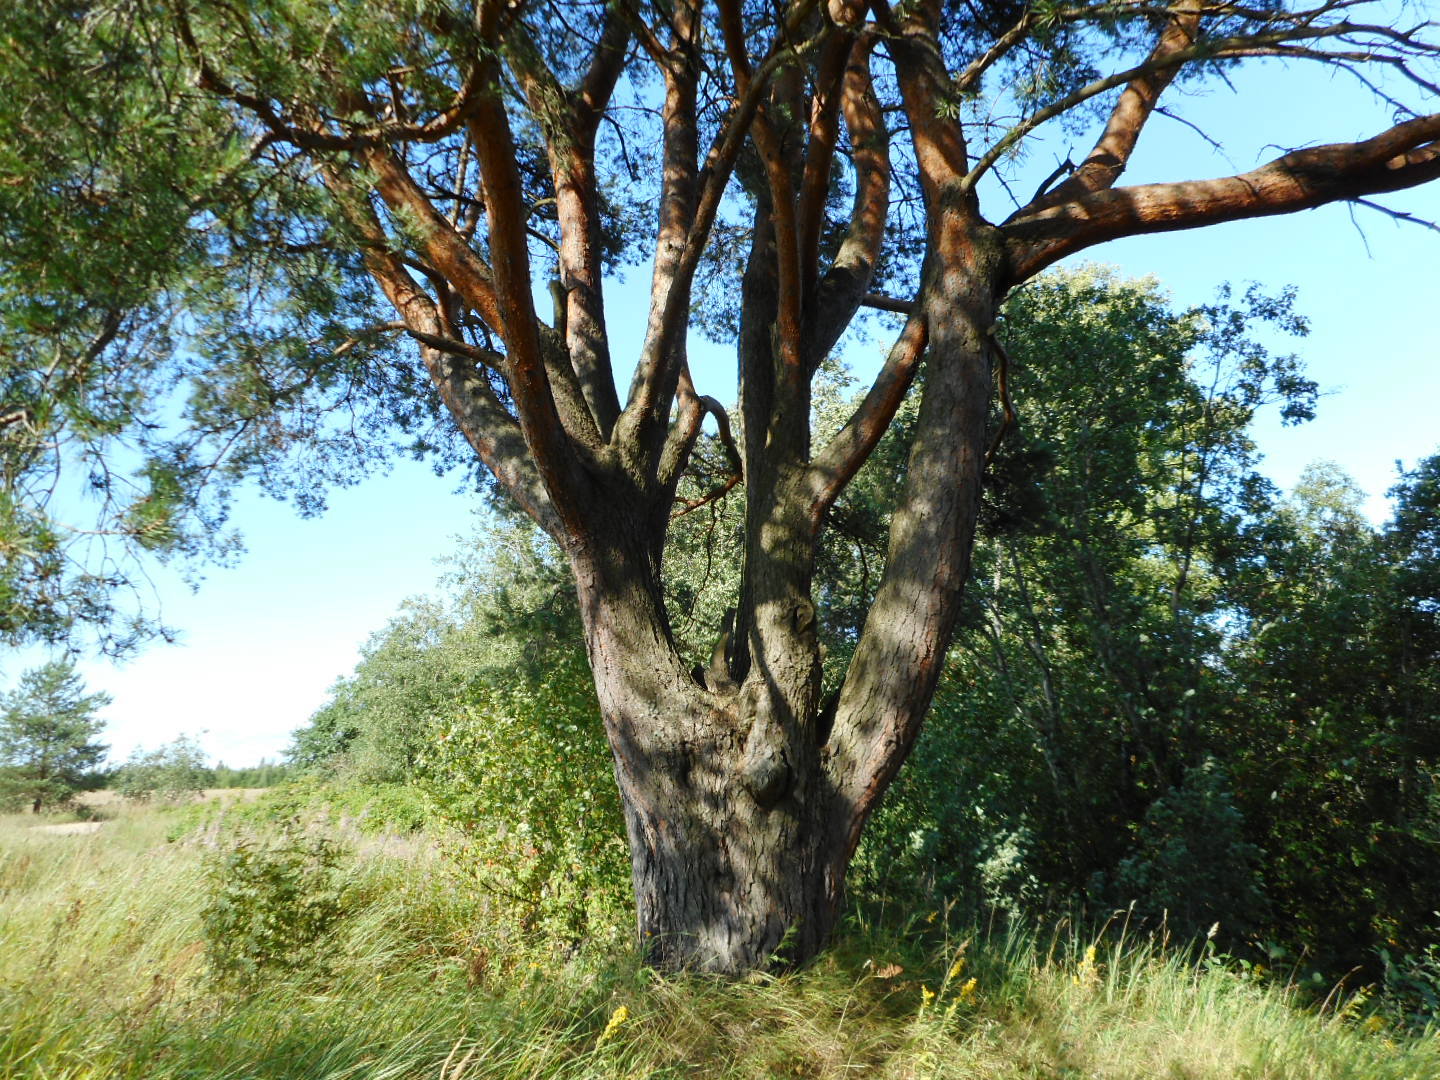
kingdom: Plantae
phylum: Tracheophyta
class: Pinopsida
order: Pinales
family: Pinaceae
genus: Pinus
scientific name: Pinus sylvestris
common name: Scots pine
